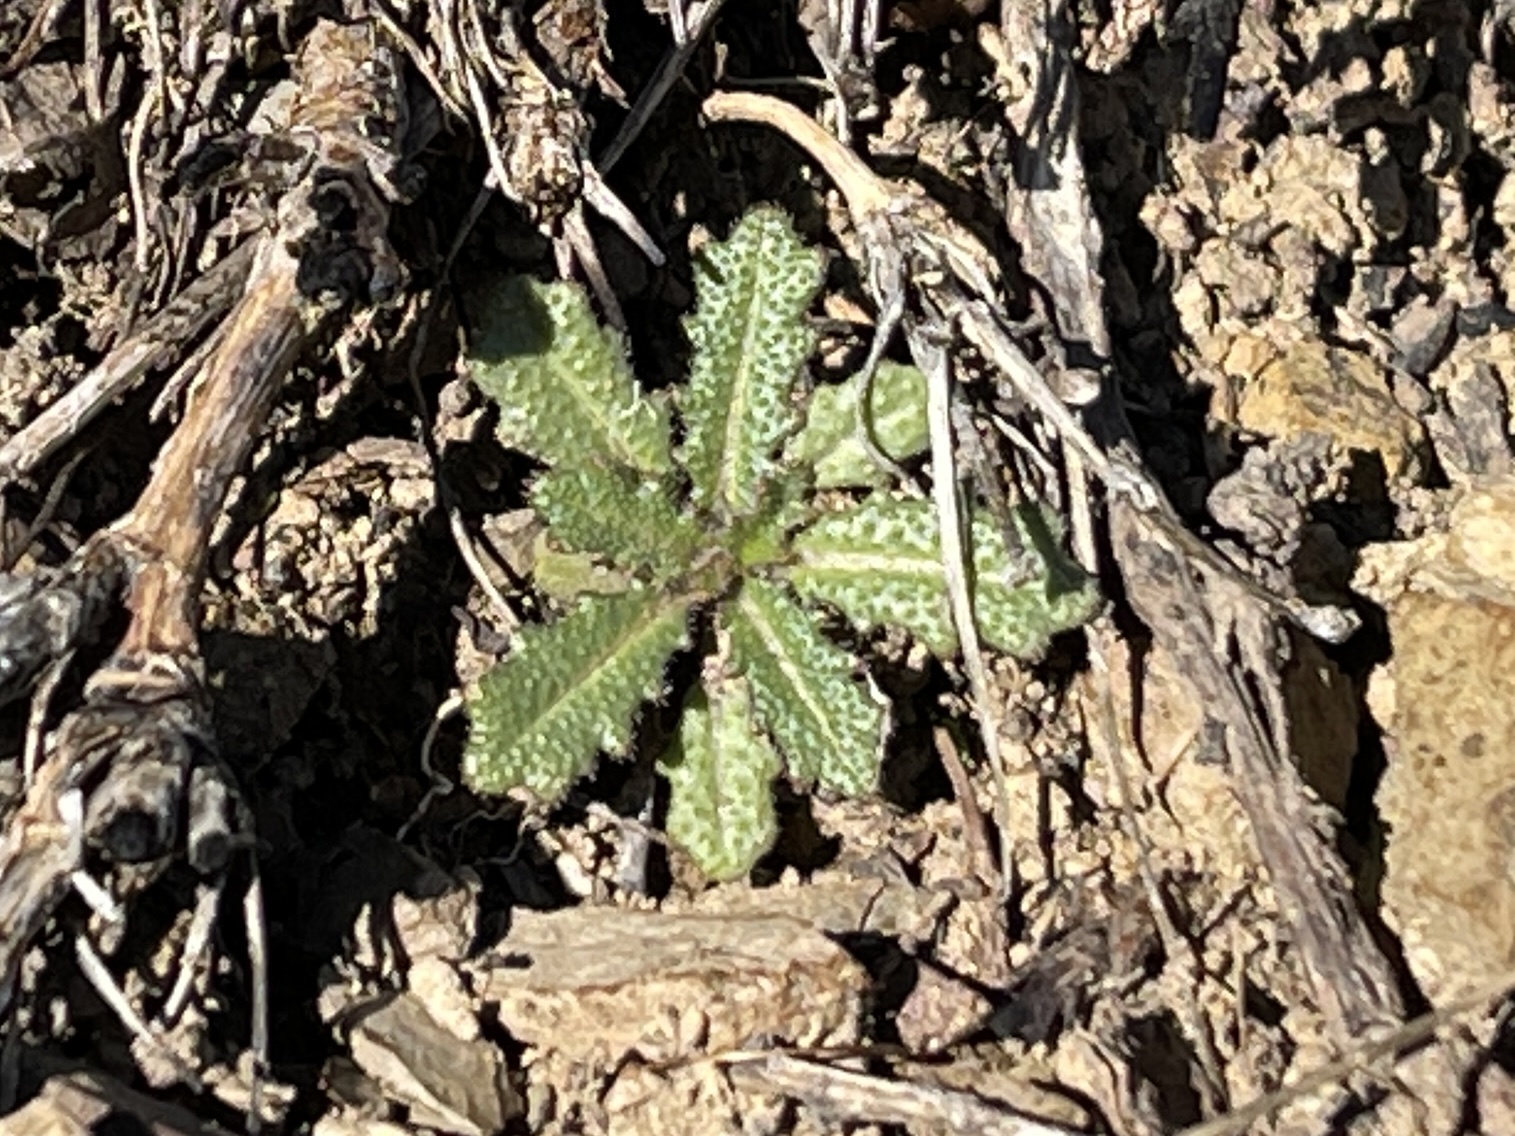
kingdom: Plantae
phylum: Tracheophyta
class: Magnoliopsida
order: Brassicales
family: Brassicaceae
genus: Streptanthus
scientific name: Streptanthus glandulosus
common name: Jewel-flower
